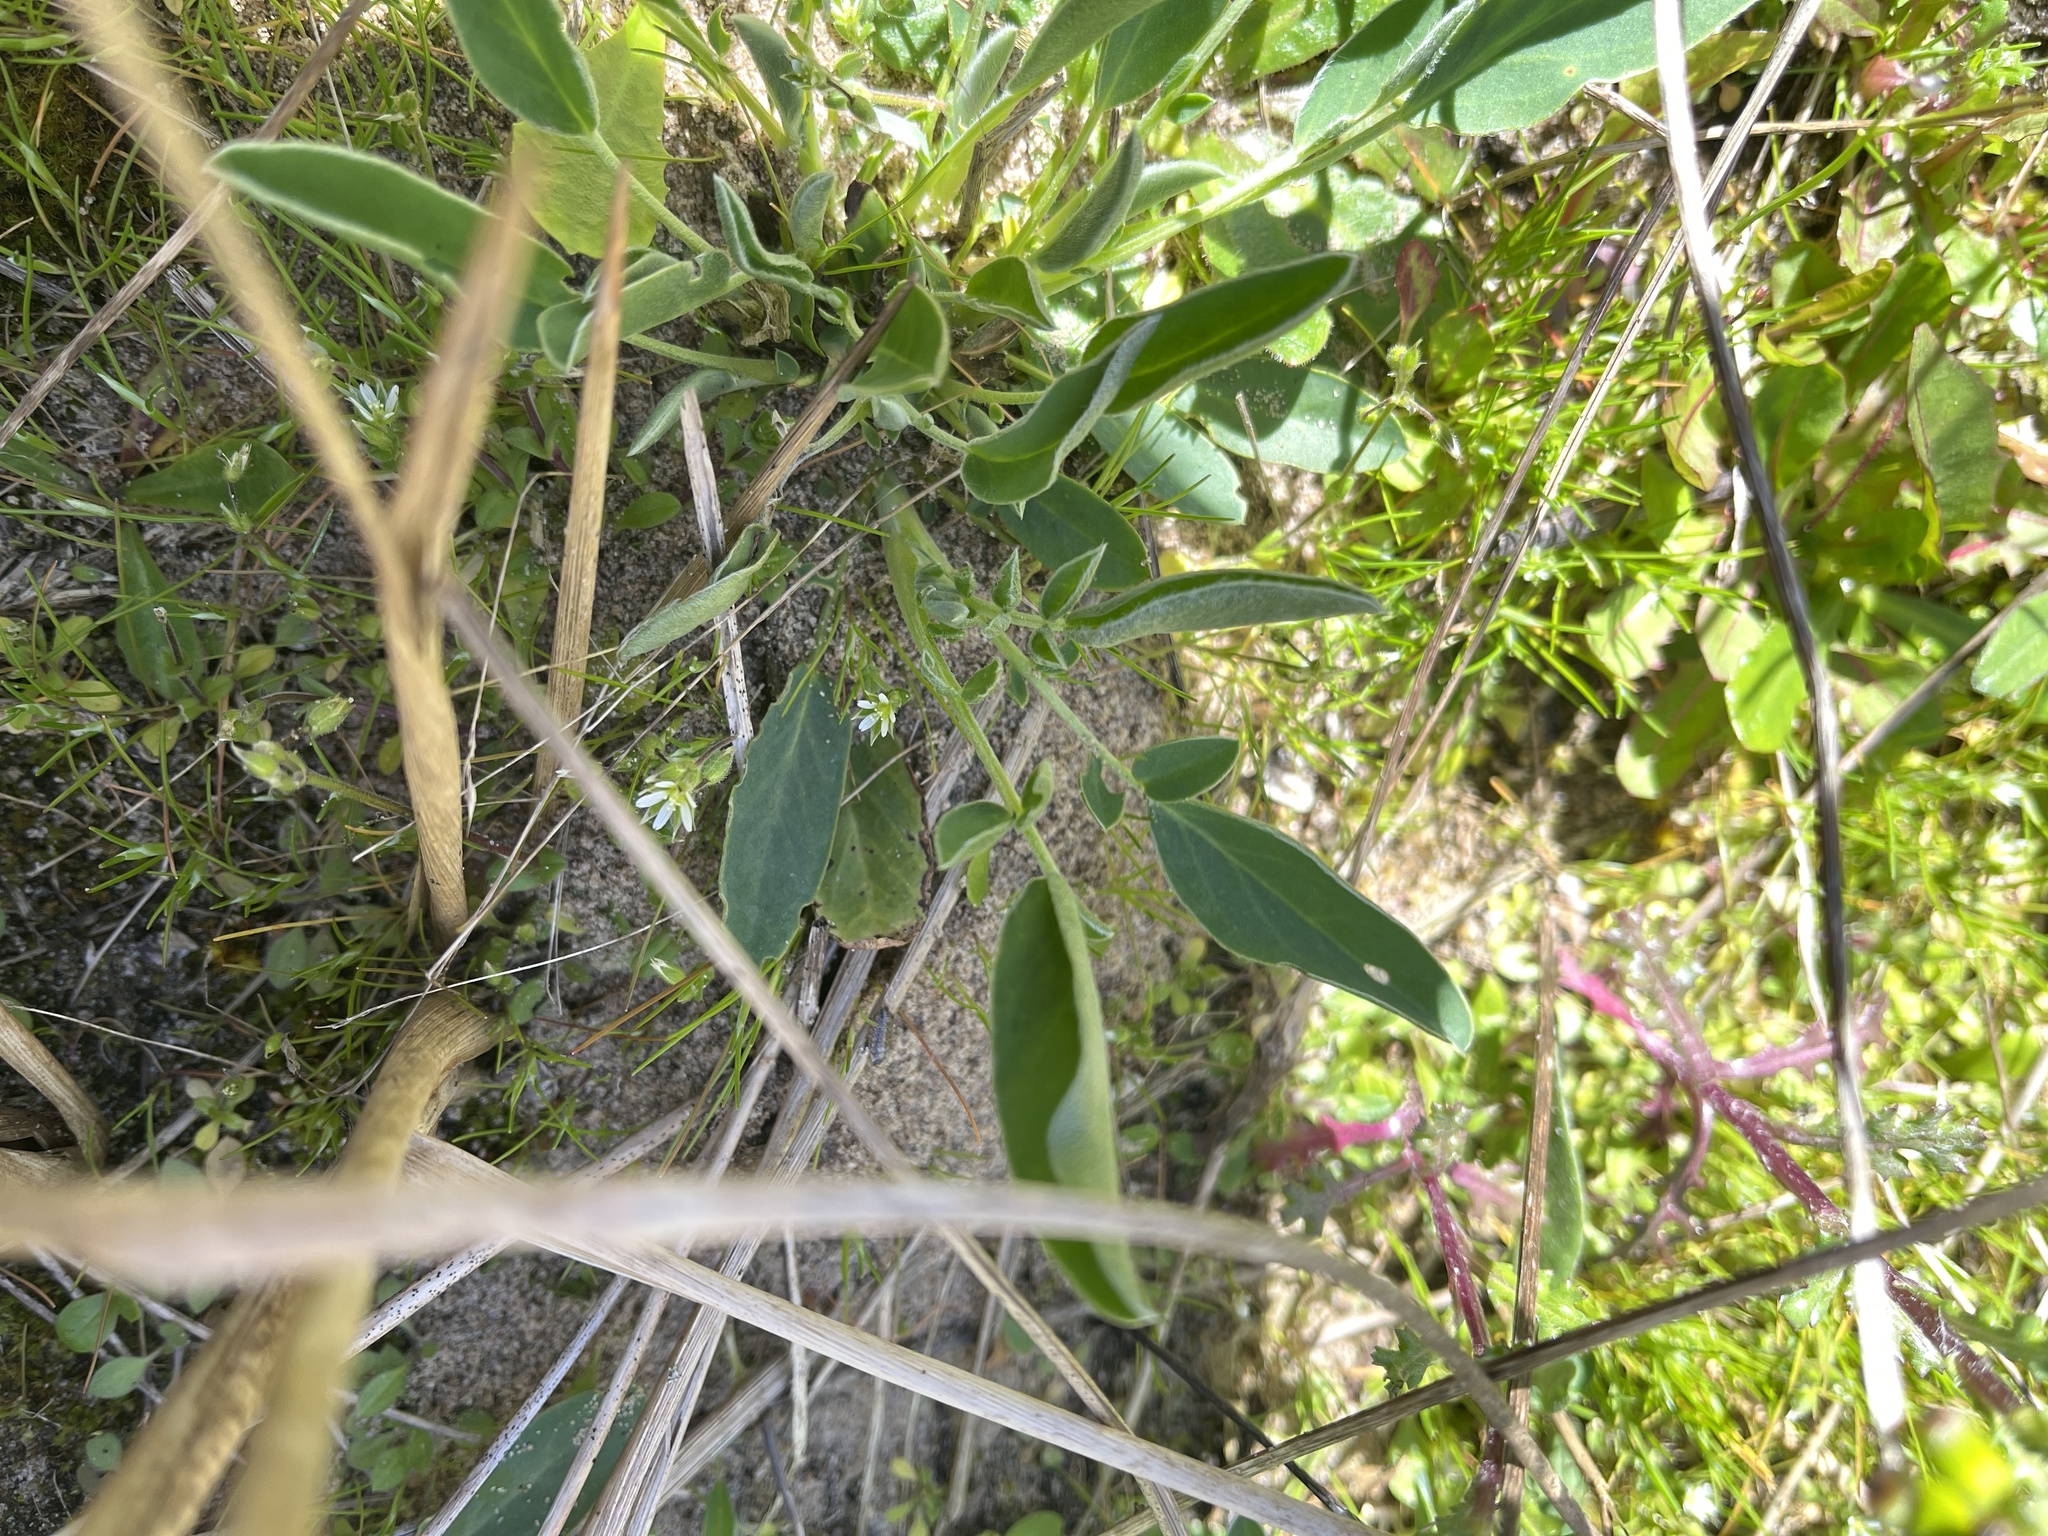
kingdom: Plantae
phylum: Tracheophyta
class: Magnoliopsida
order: Caryophyllales
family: Caryophyllaceae
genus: Arenaria
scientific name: Arenaria serpyllifolia
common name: Thyme-leaved sandwort
